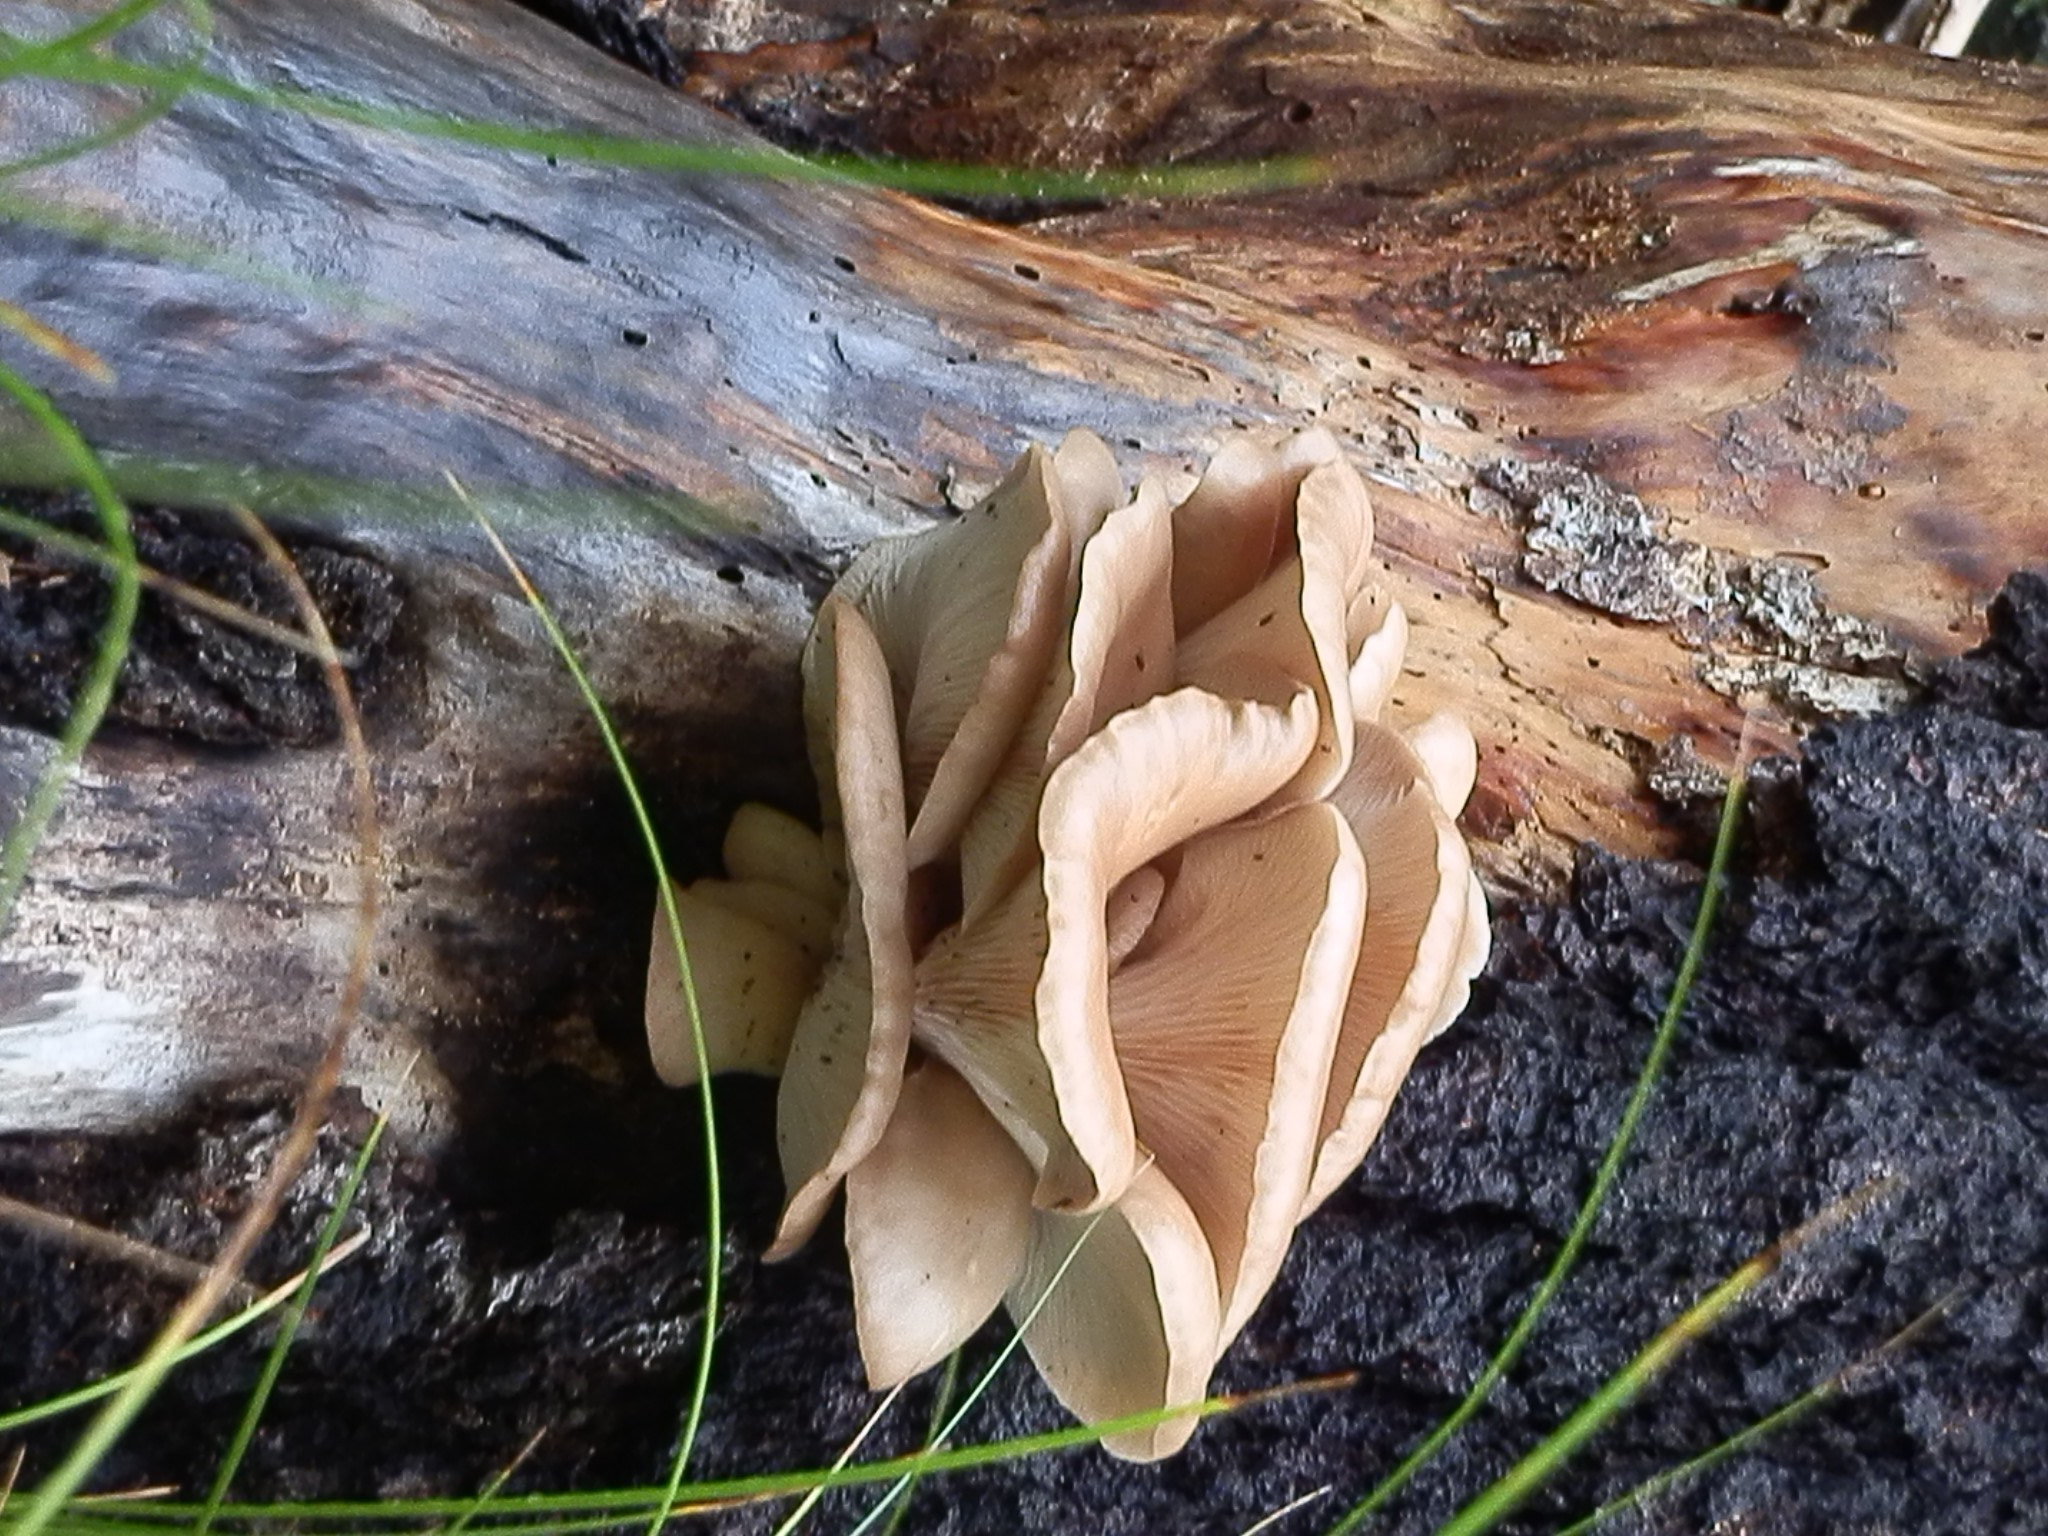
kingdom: Fungi
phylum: Basidiomycota
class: Agaricomycetes
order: Agaricales
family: Pleurotaceae
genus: Pleurotus
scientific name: Pleurotus pulmonarius
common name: Pale oyster
